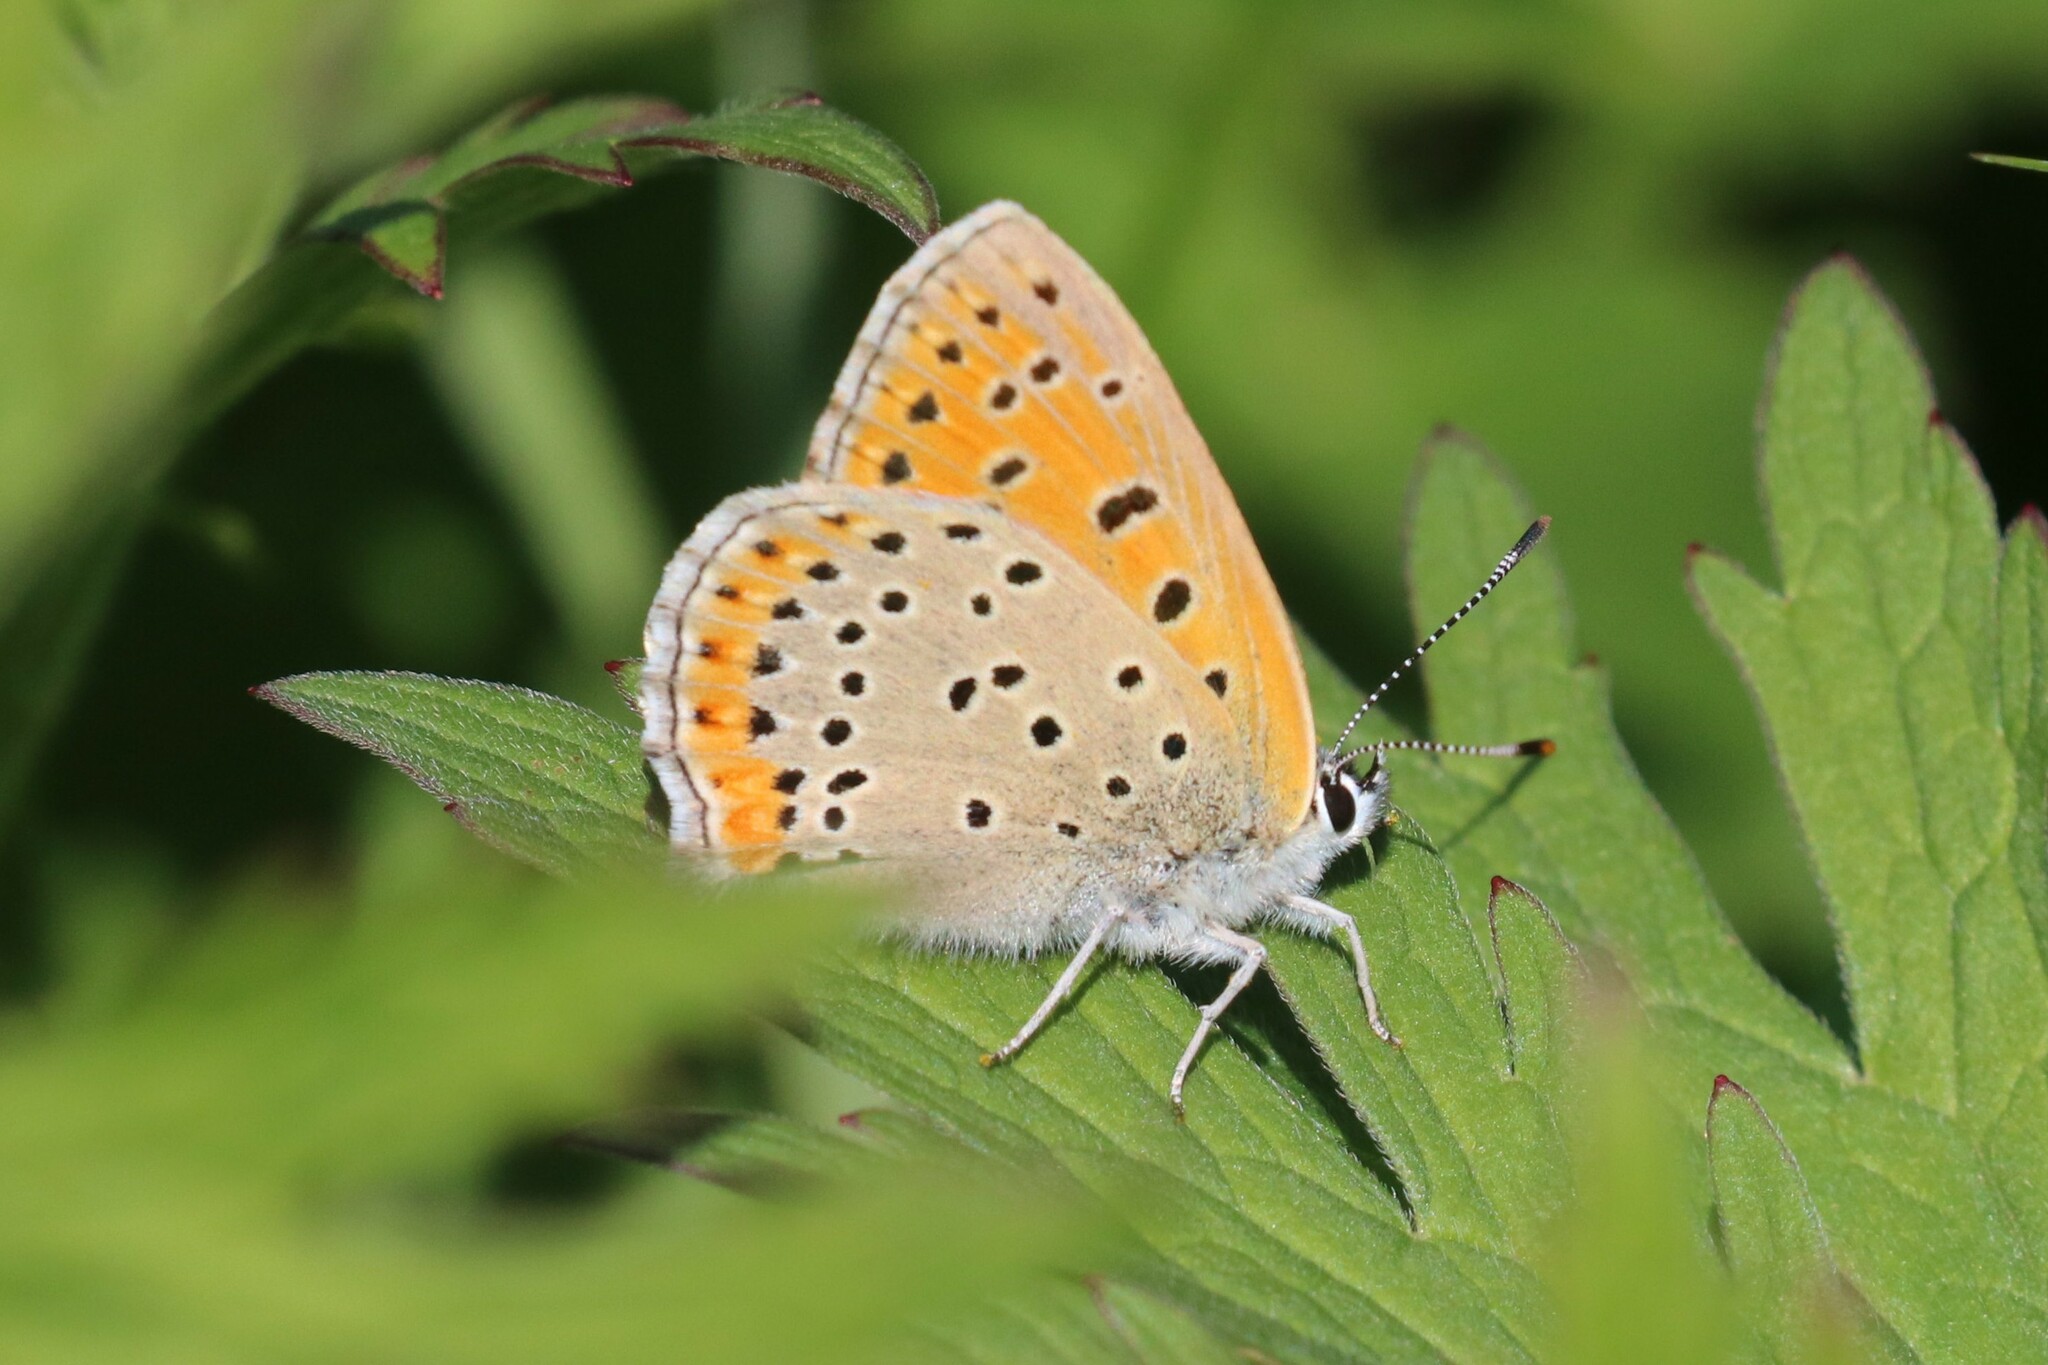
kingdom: Animalia
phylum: Arthropoda
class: Insecta
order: Lepidoptera
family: Lycaenidae
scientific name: Lycaenidae
